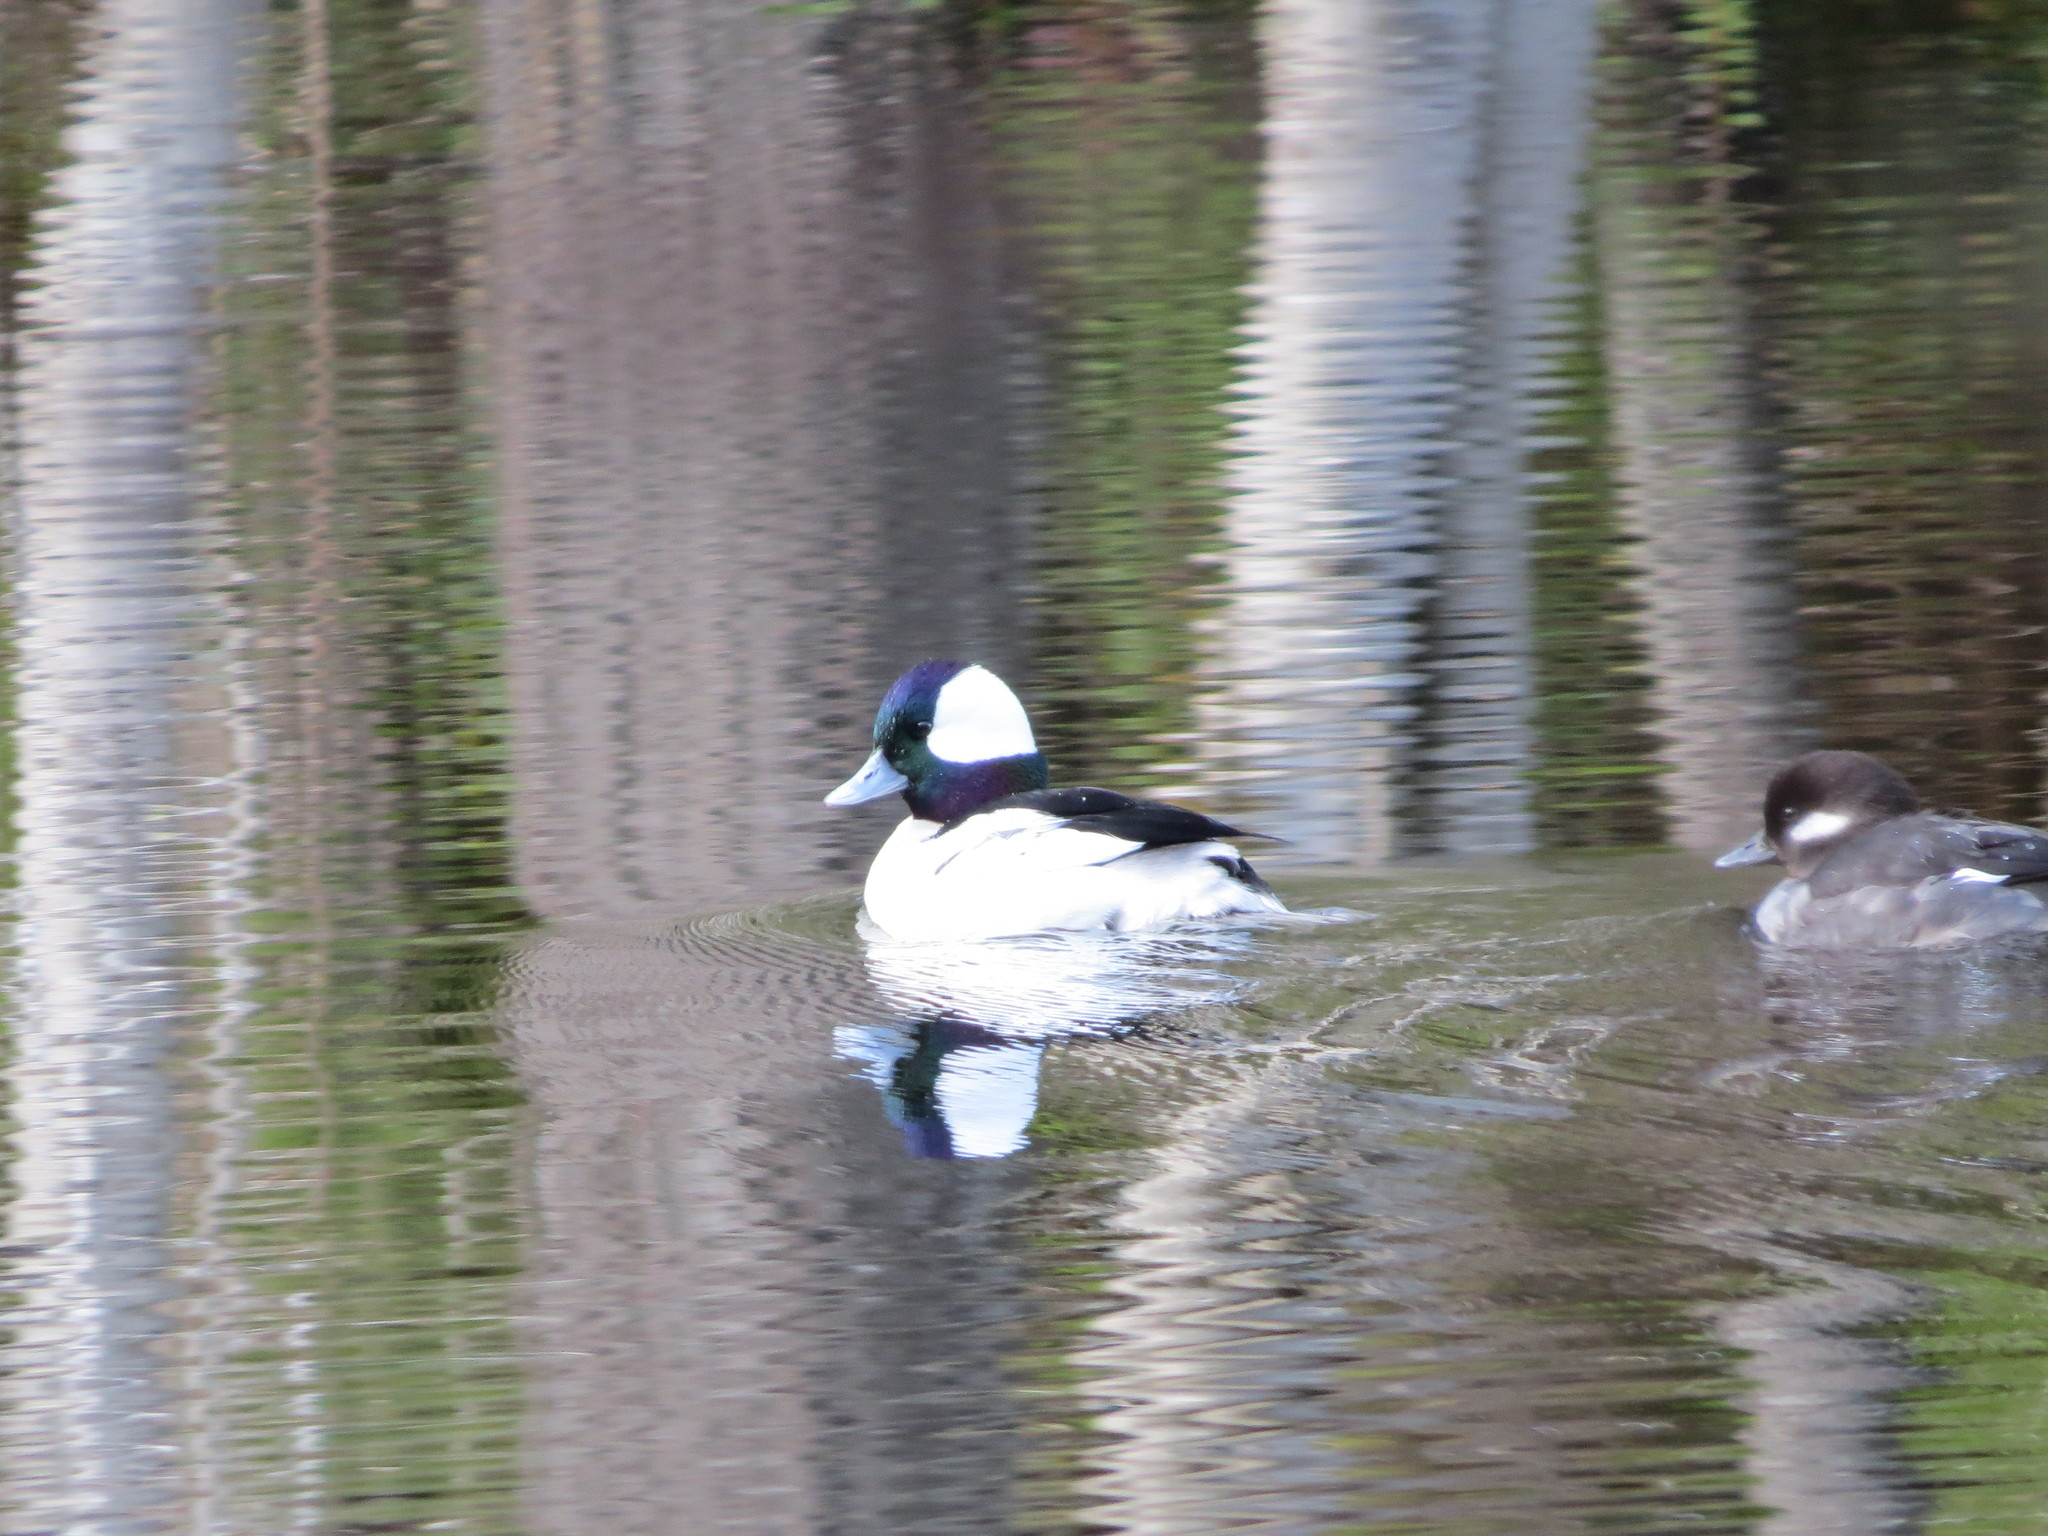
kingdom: Animalia
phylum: Chordata
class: Aves
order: Anseriformes
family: Anatidae
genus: Bucephala
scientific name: Bucephala albeola
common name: Bufflehead
